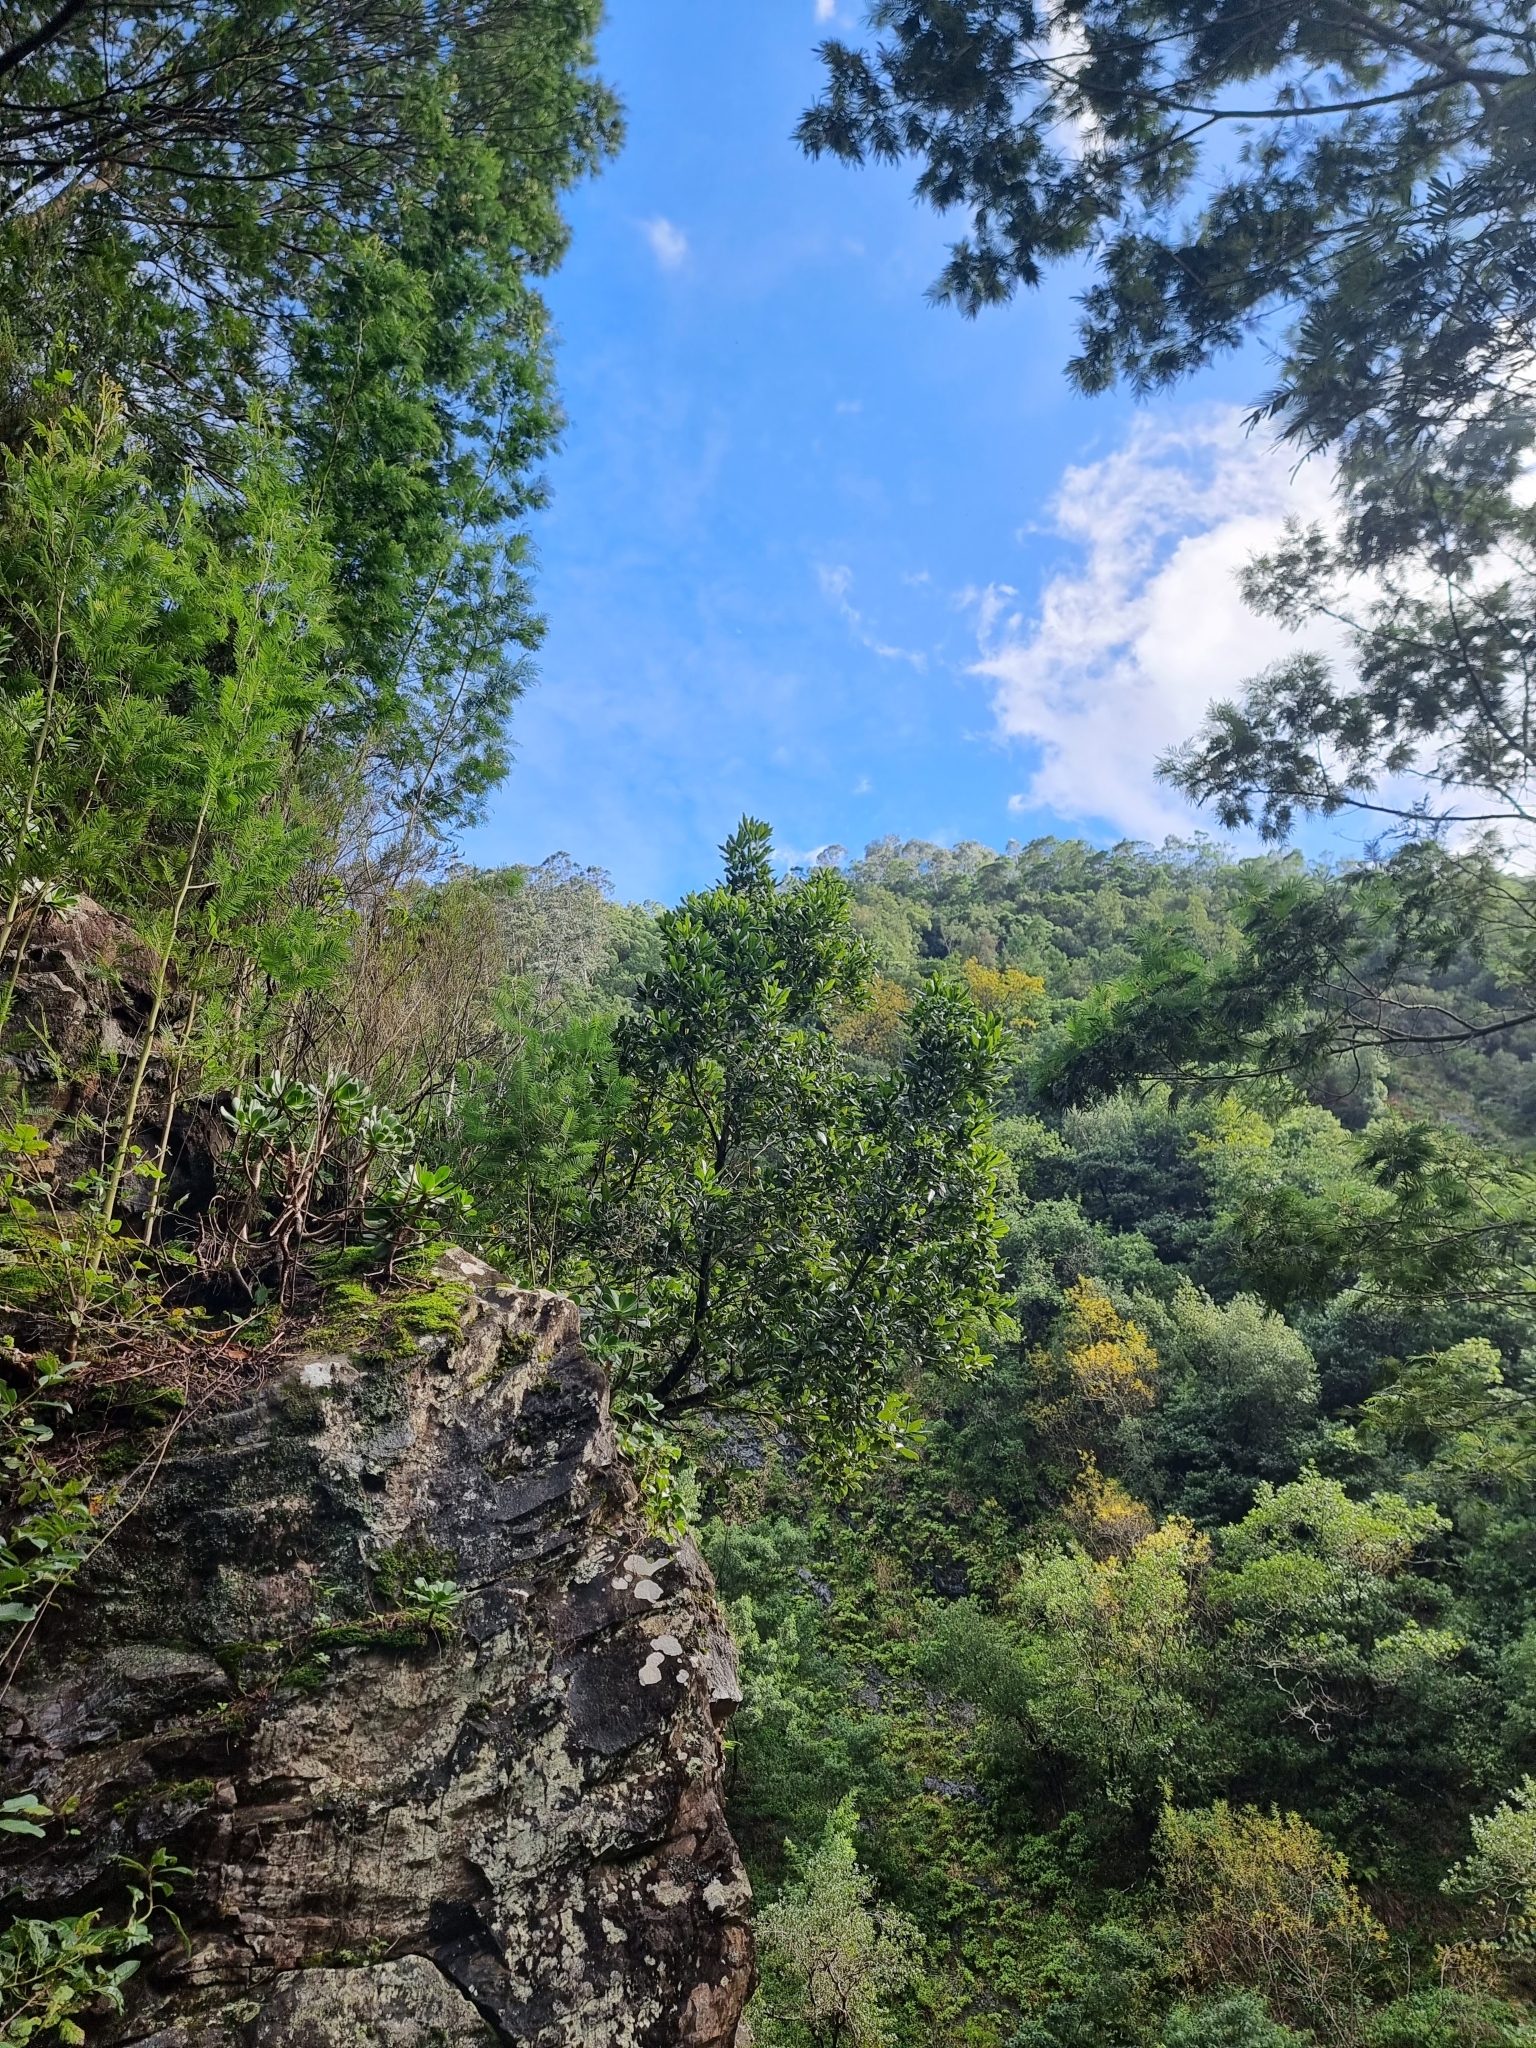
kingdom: Plantae
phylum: Tracheophyta
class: Magnoliopsida
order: Laurales
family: Lauraceae
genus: Apollonias
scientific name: Apollonias barbujana
